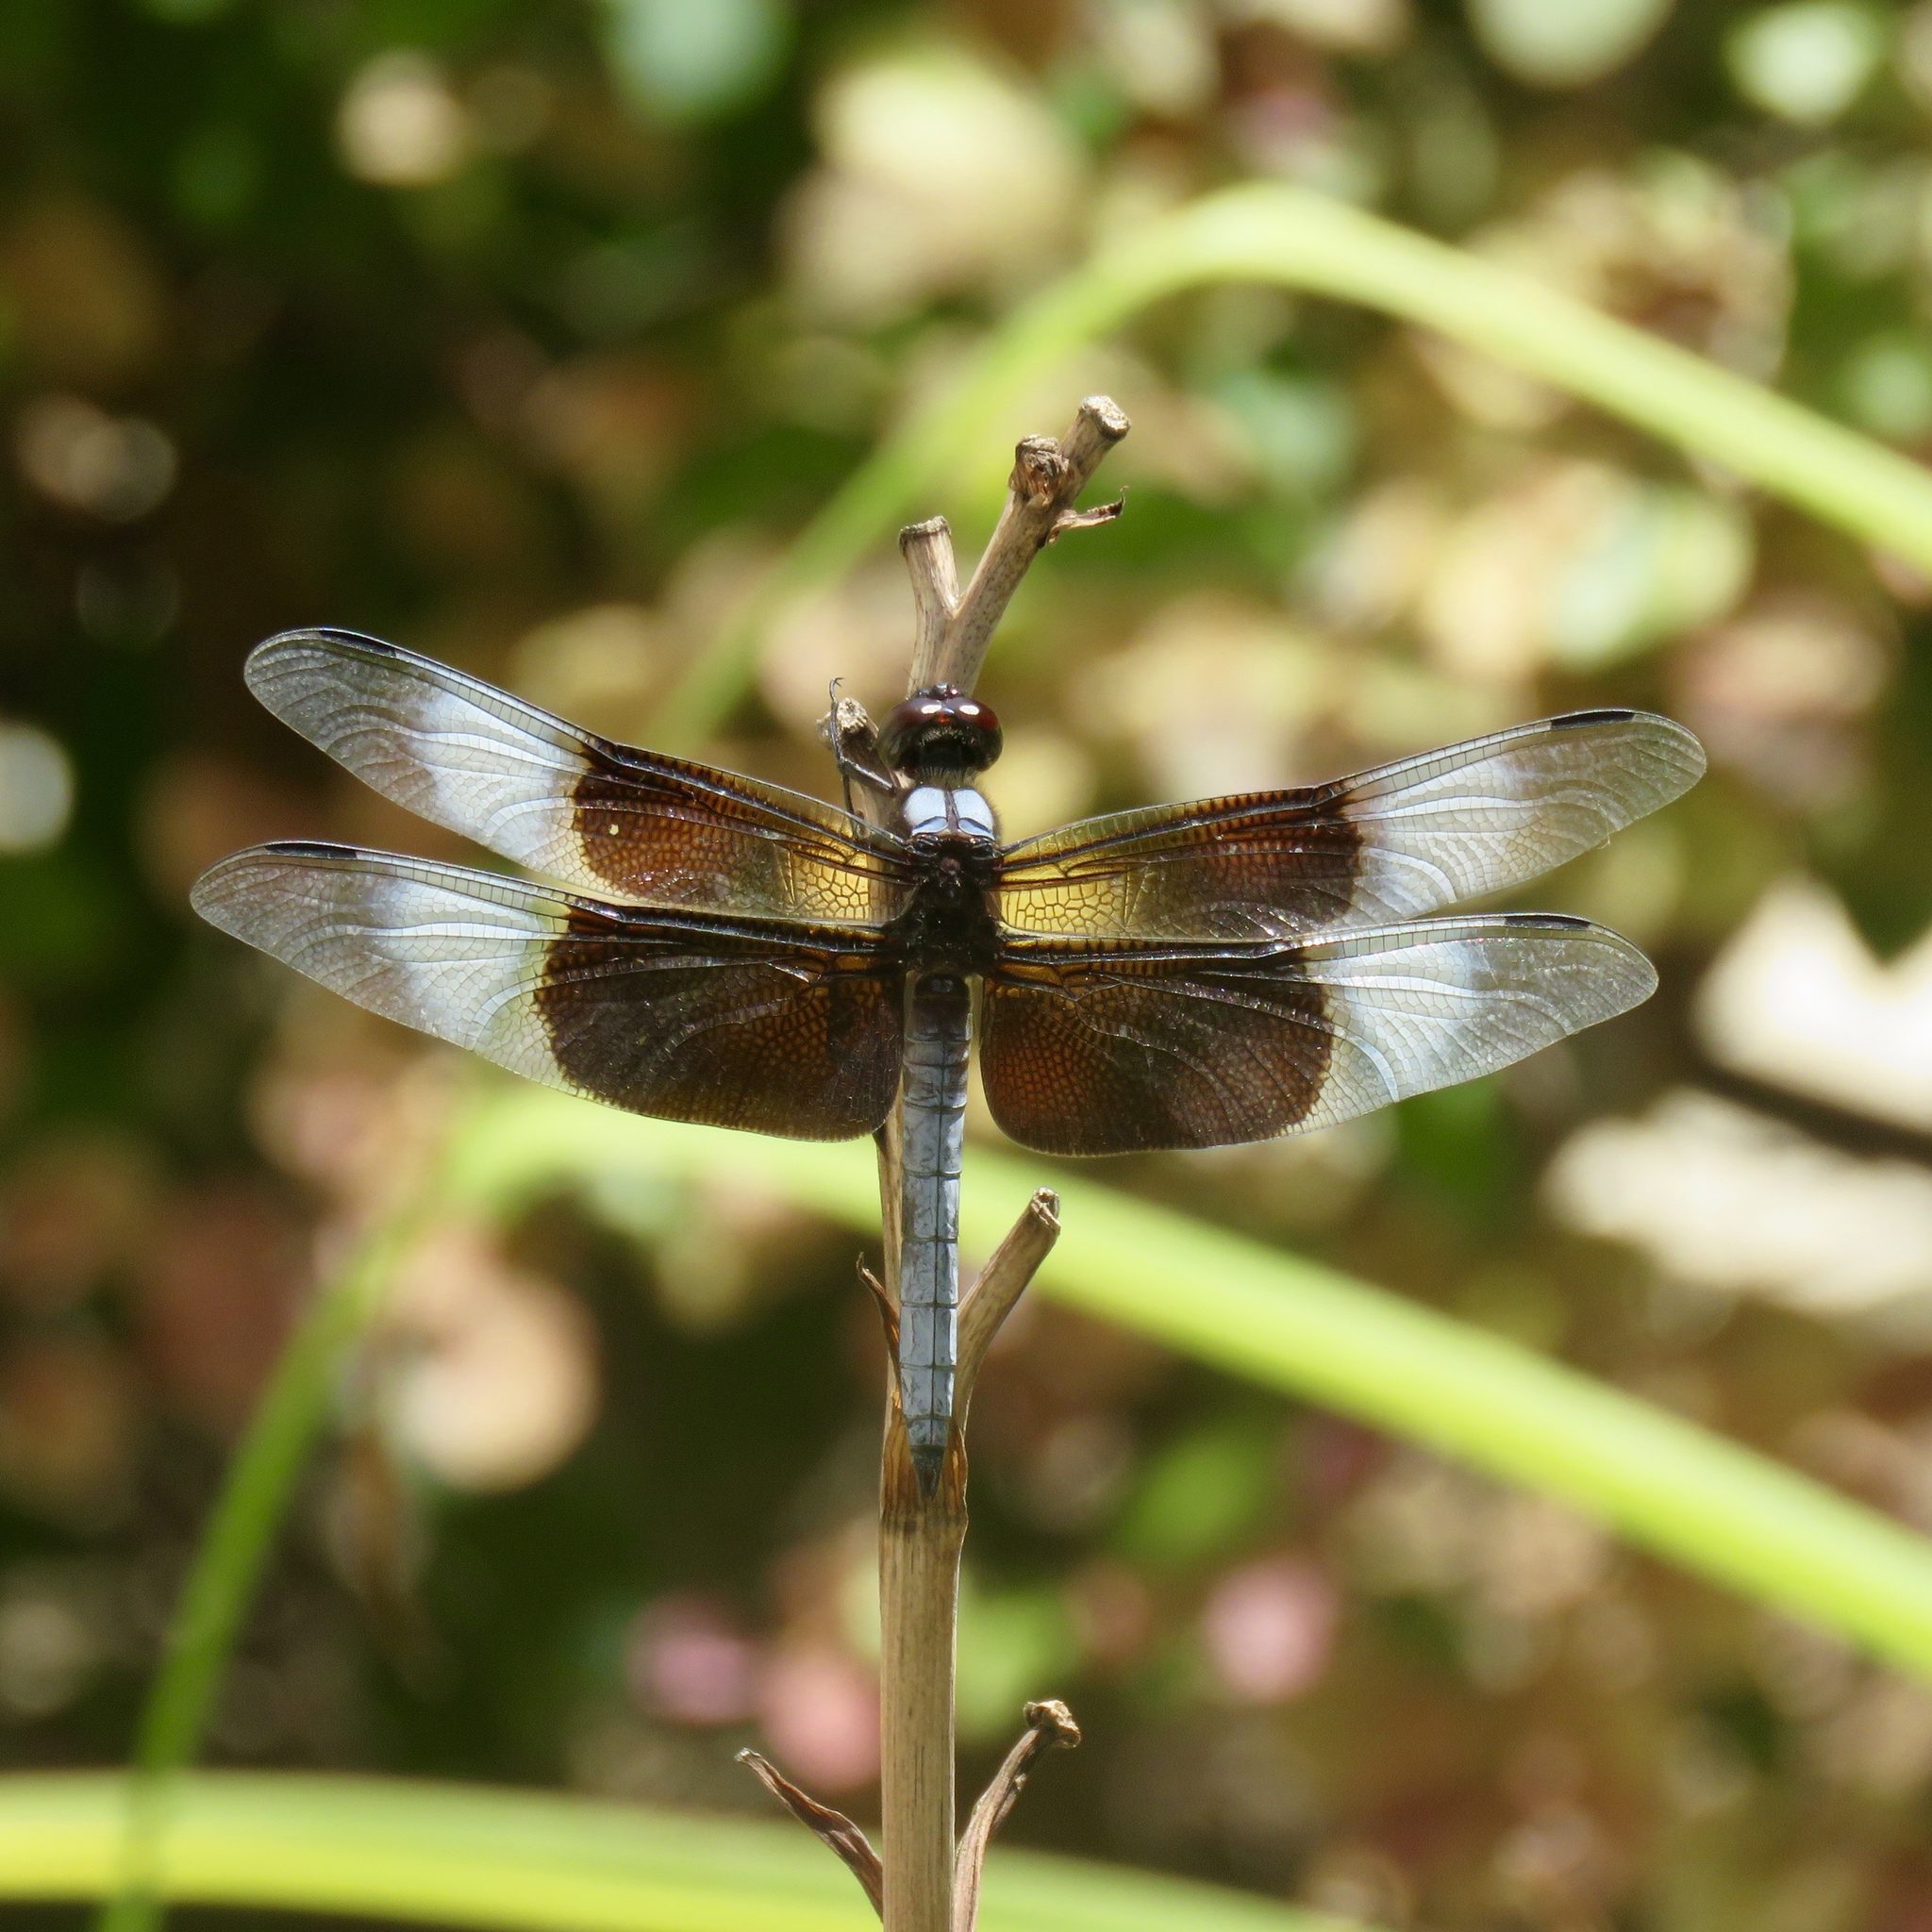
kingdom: Animalia
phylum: Arthropoda
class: Insecta
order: Odonata
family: Libellulidae
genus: Libellula
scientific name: Libellula luctuosa
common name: Widow skimmer
